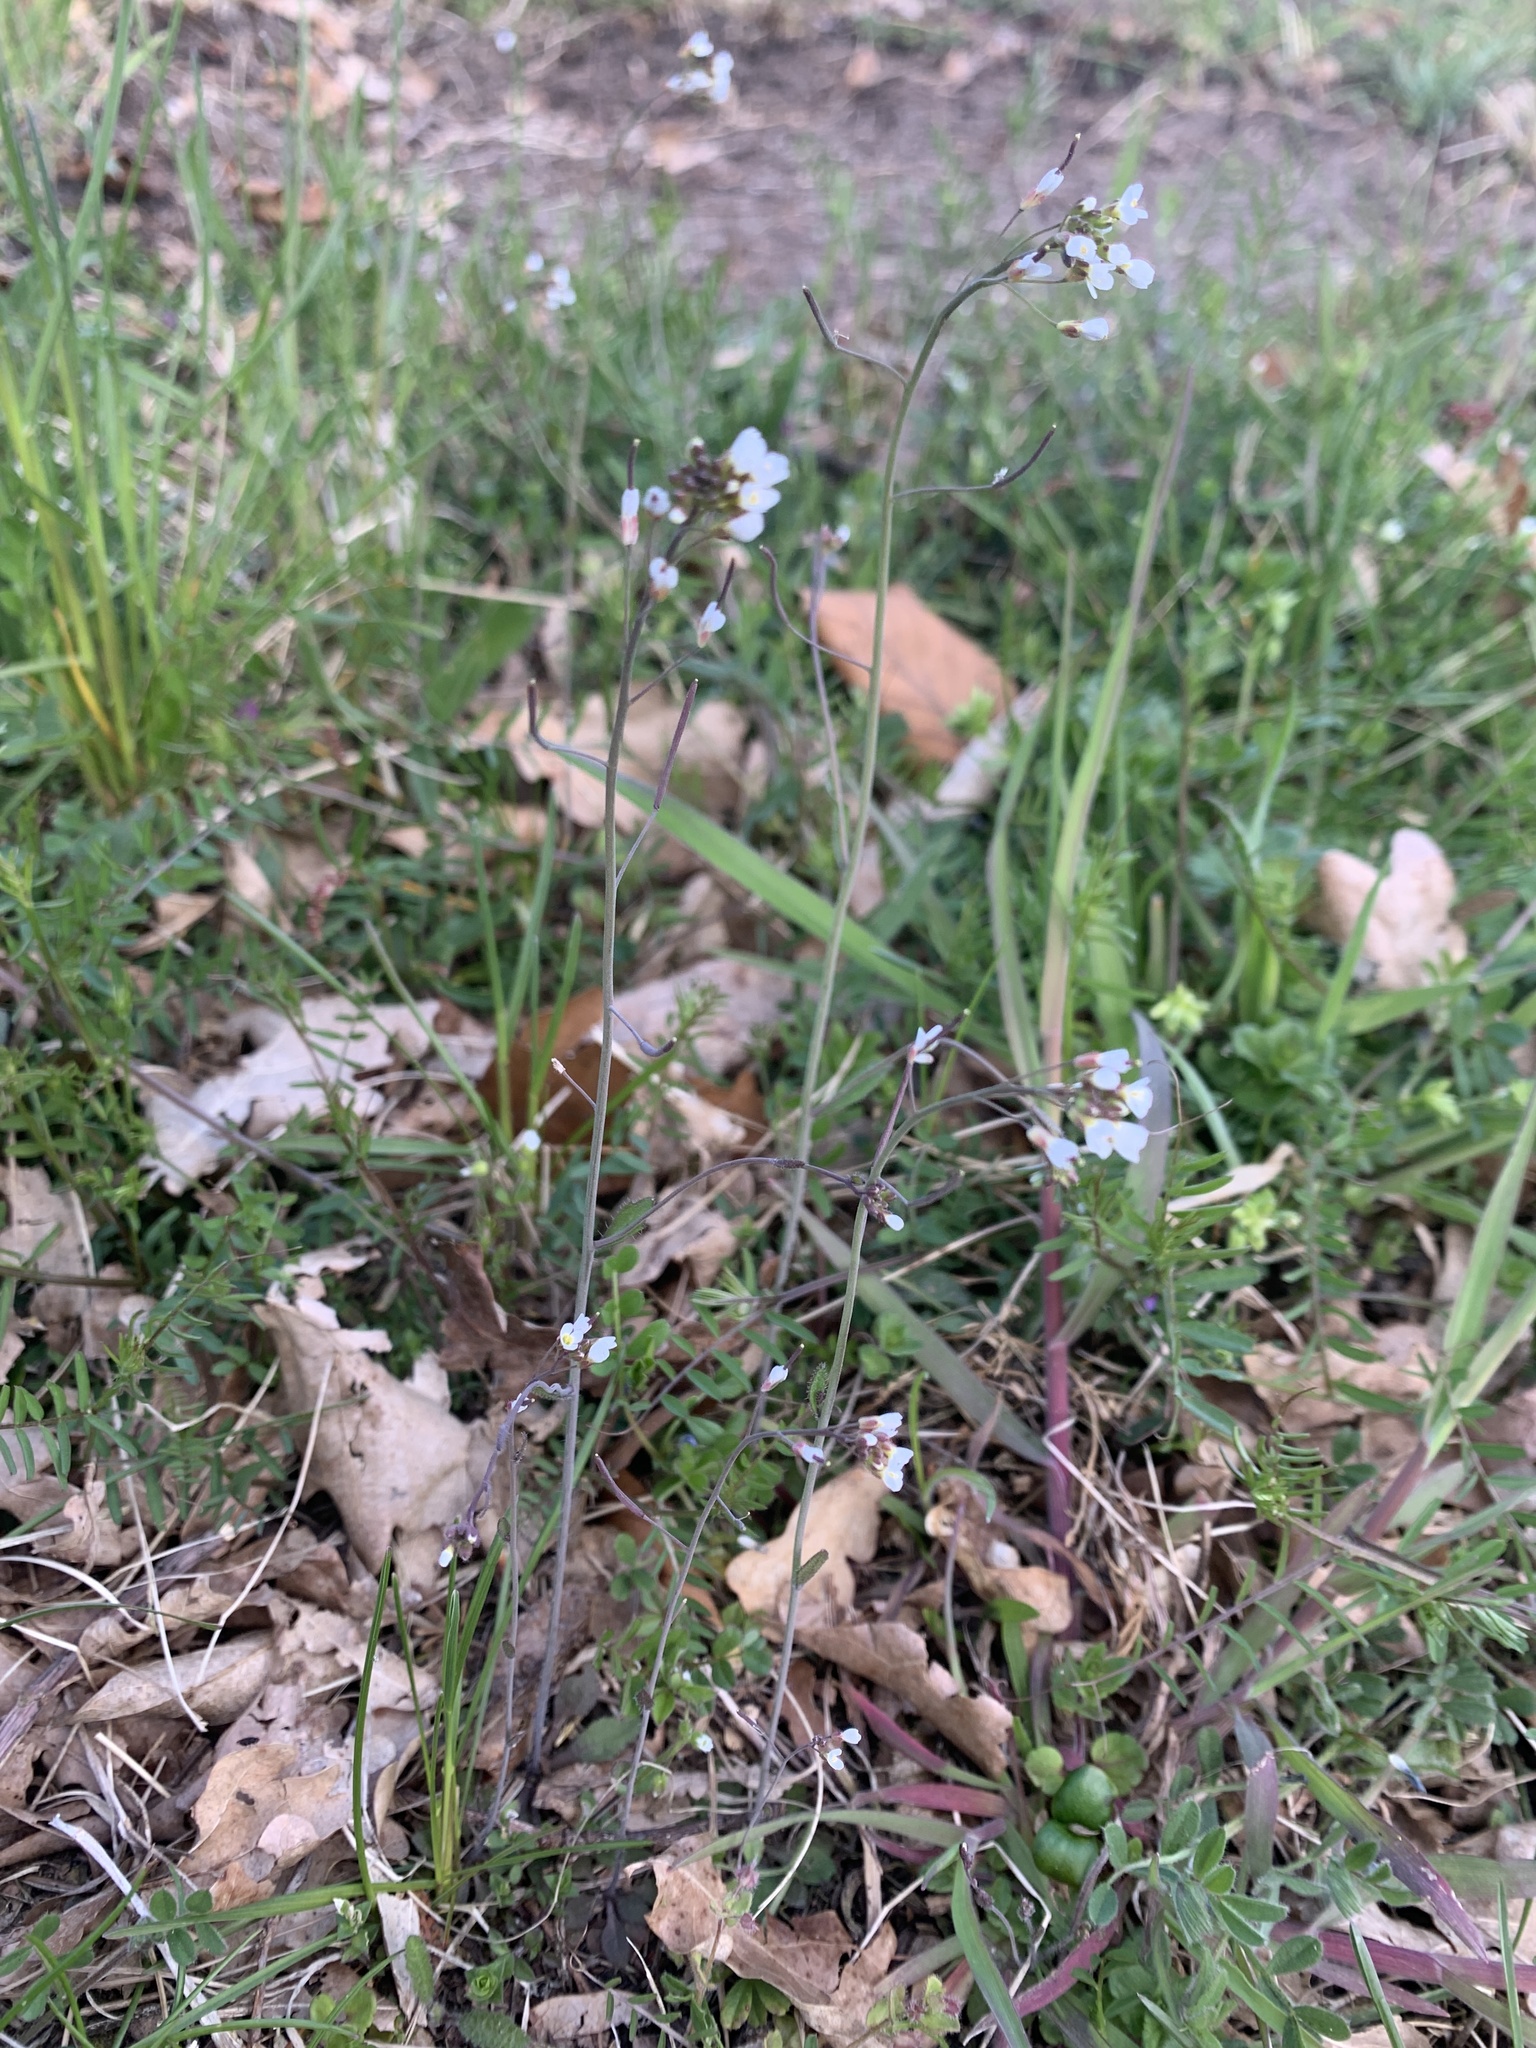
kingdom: Plantae
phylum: Tracheophyta
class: Magnoliopsida
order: Brassicales
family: Brassicaceae
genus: Arabidopsis
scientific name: Arabidopsis thaliana
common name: Thale cress
